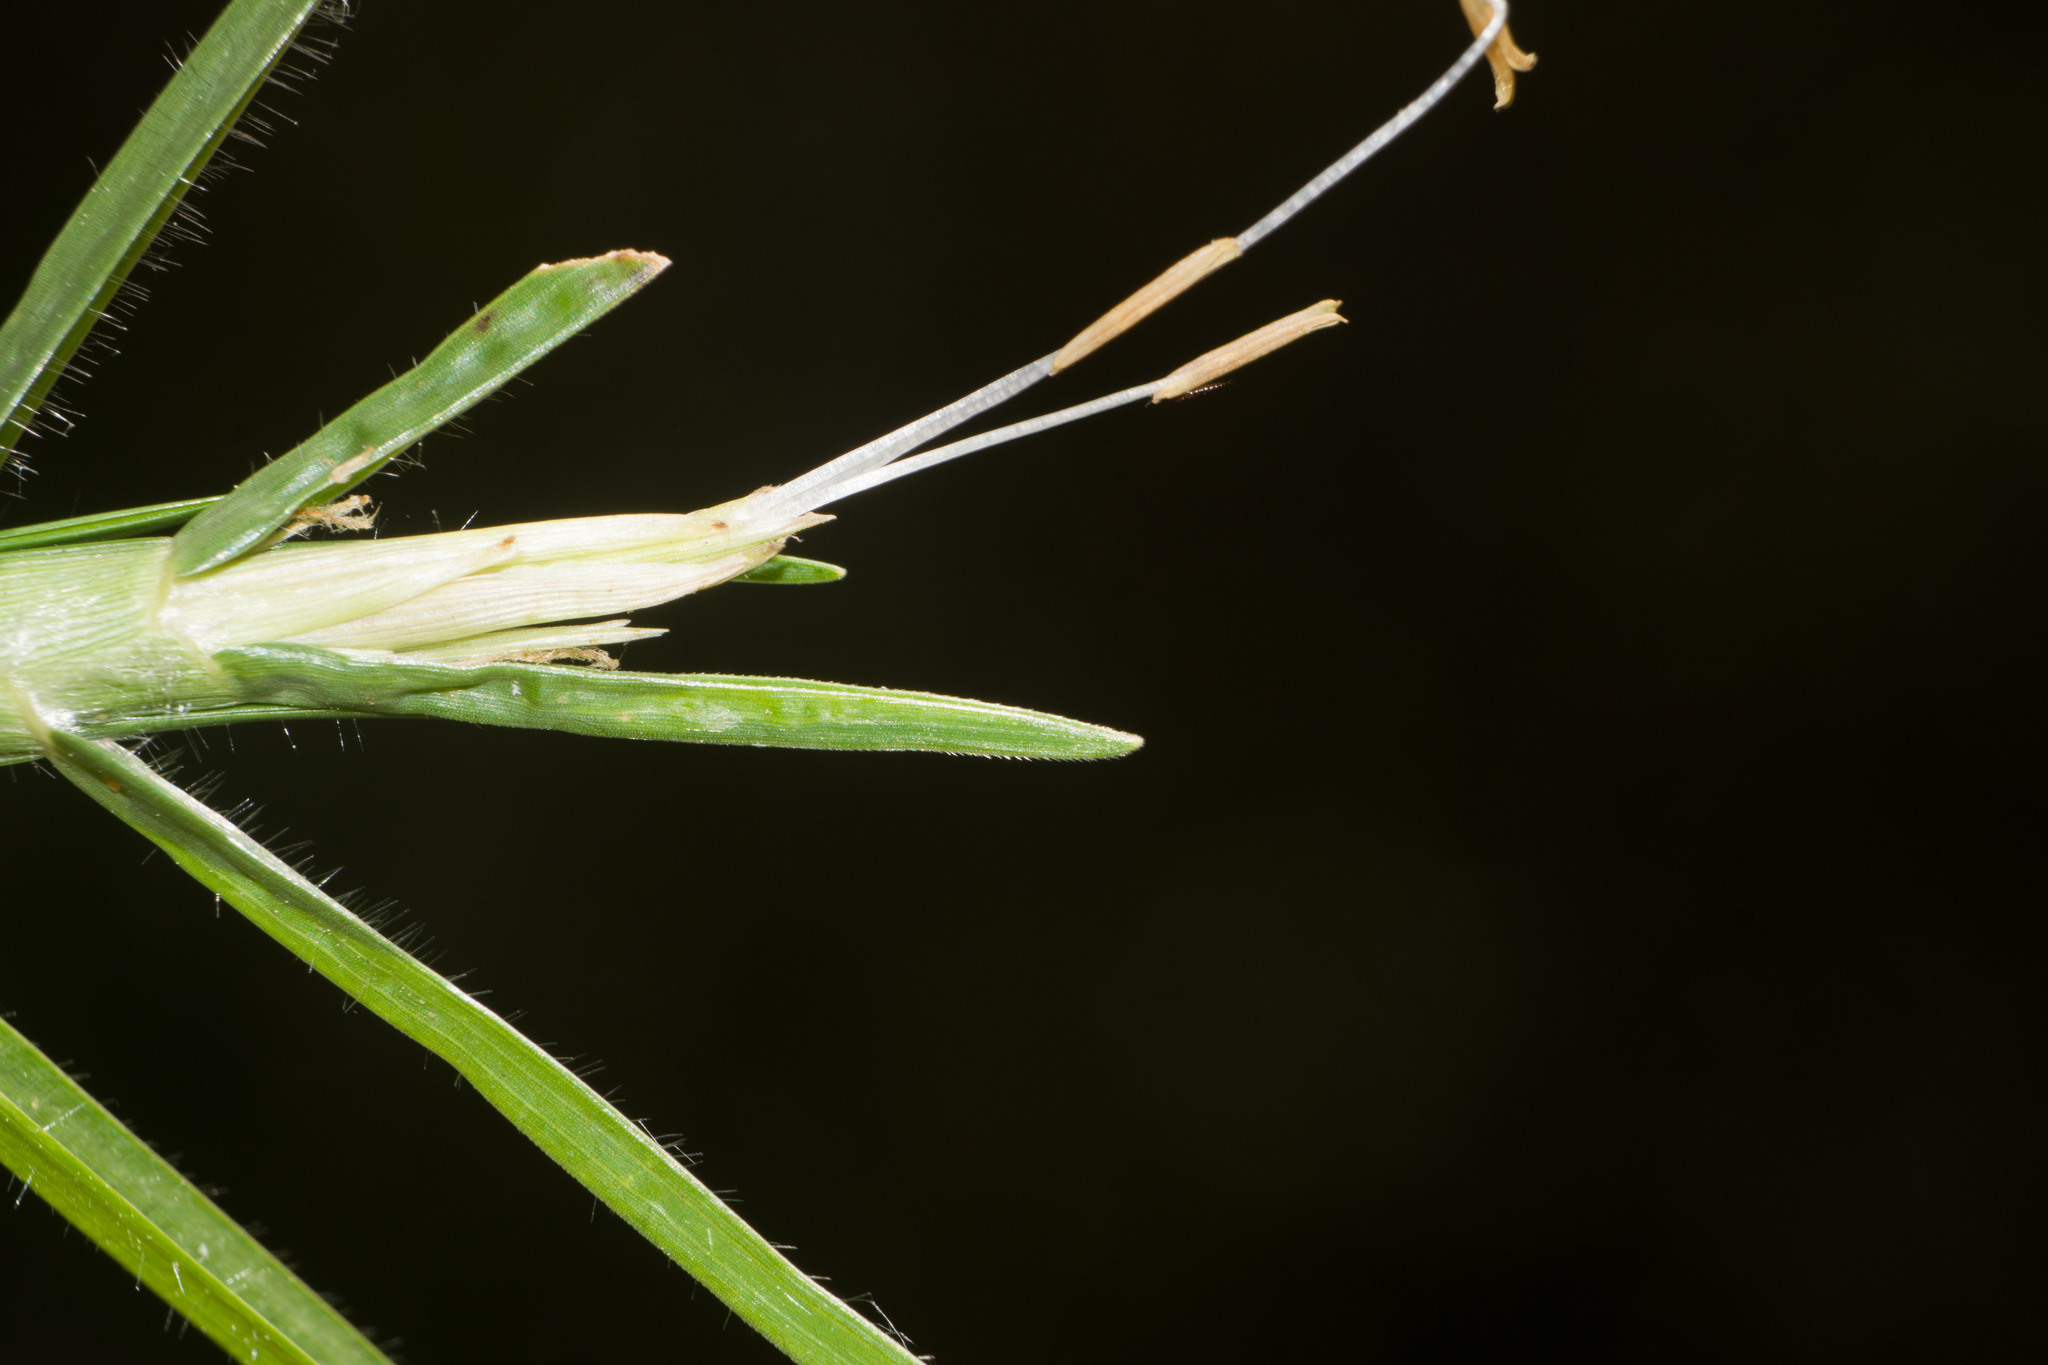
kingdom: Plantae
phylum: Tracheophyta
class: Liliopsida
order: Poales
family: Poaceae
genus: Cenchrus
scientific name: Cenchrus clandestinus
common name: Kikuyugrass
